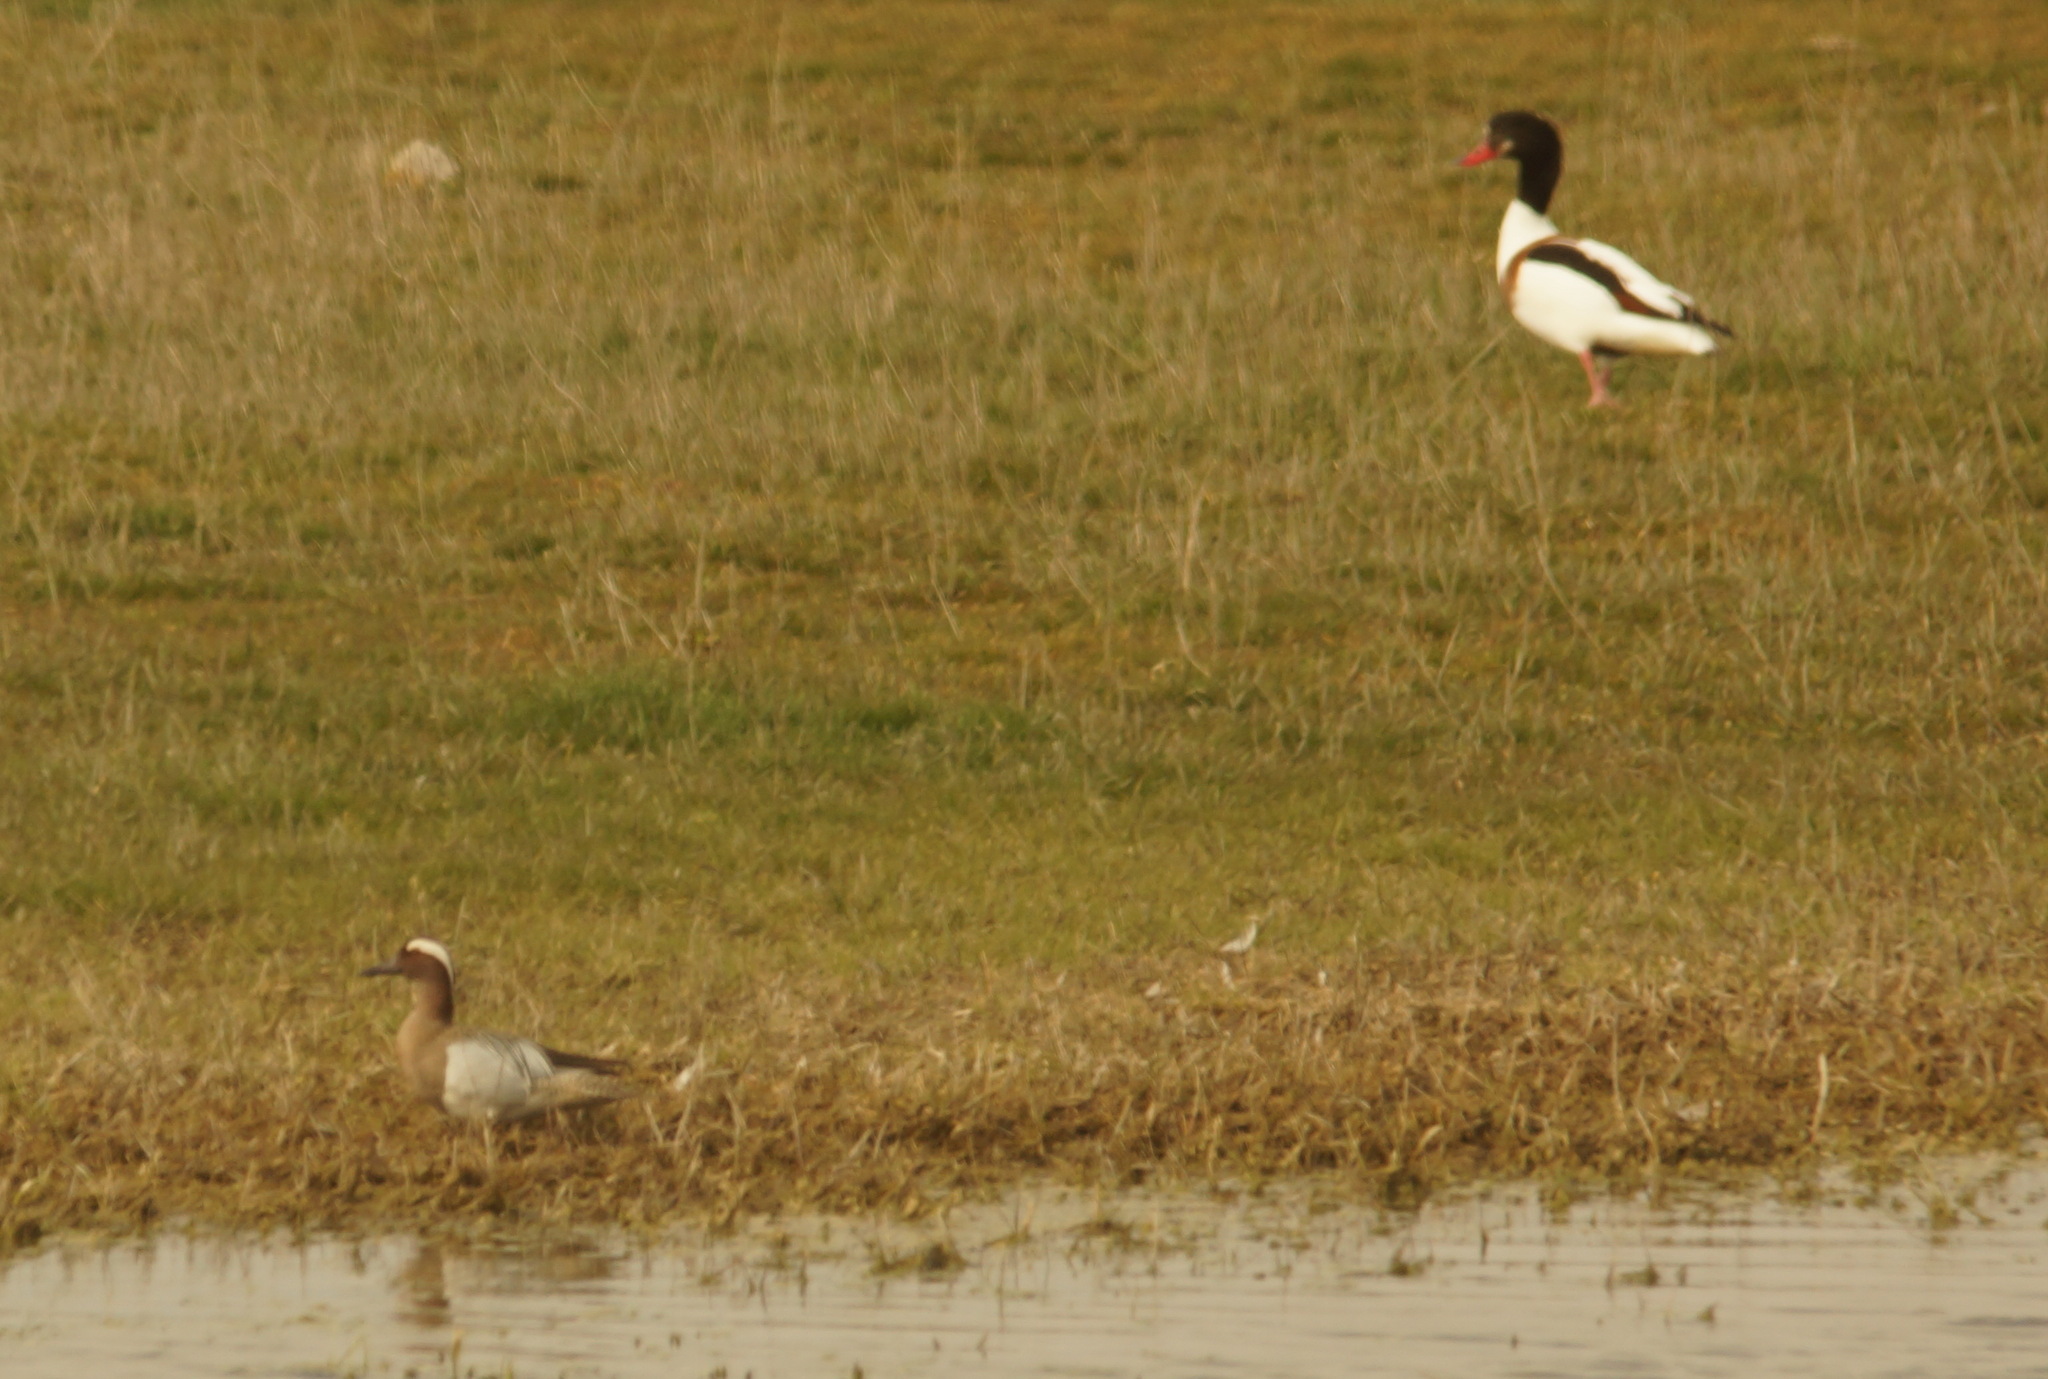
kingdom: Animalia
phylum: Chordata
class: Aves
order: Anseriformes
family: Anatidae
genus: Spatula
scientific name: Spatula querquedula
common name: Garganey
